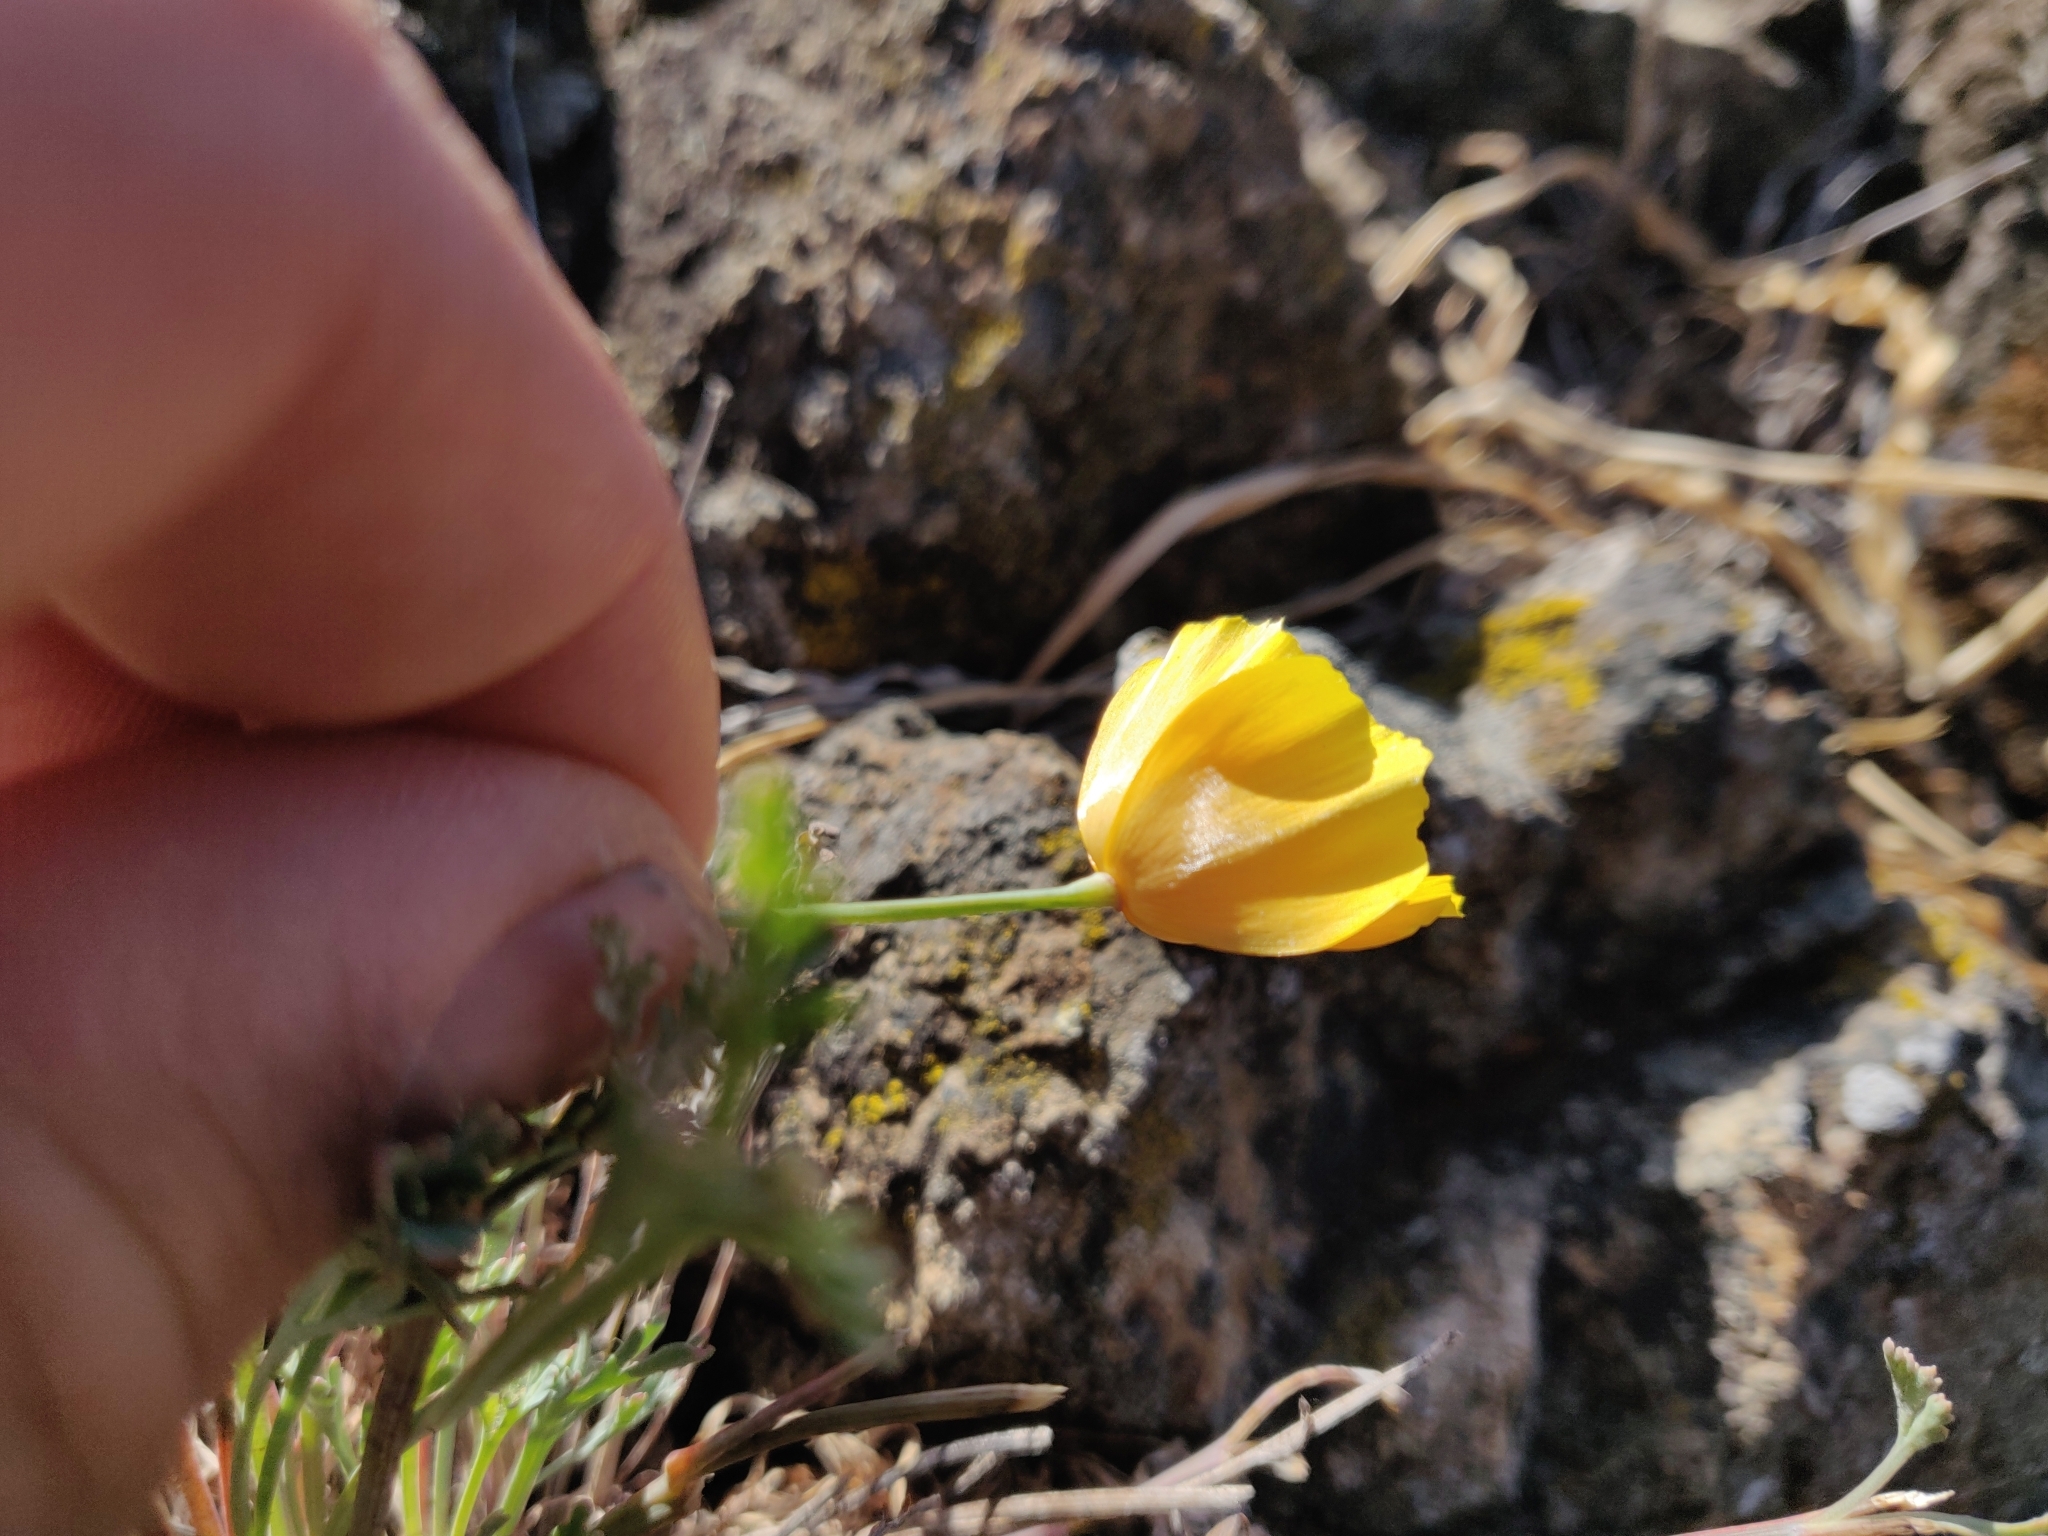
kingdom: Plantae
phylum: Tracheophyta
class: Magnoliopsida
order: Ranunculales
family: Papaveraceae
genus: Eschscholzia
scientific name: Eschscholzia californica
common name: California poppy
